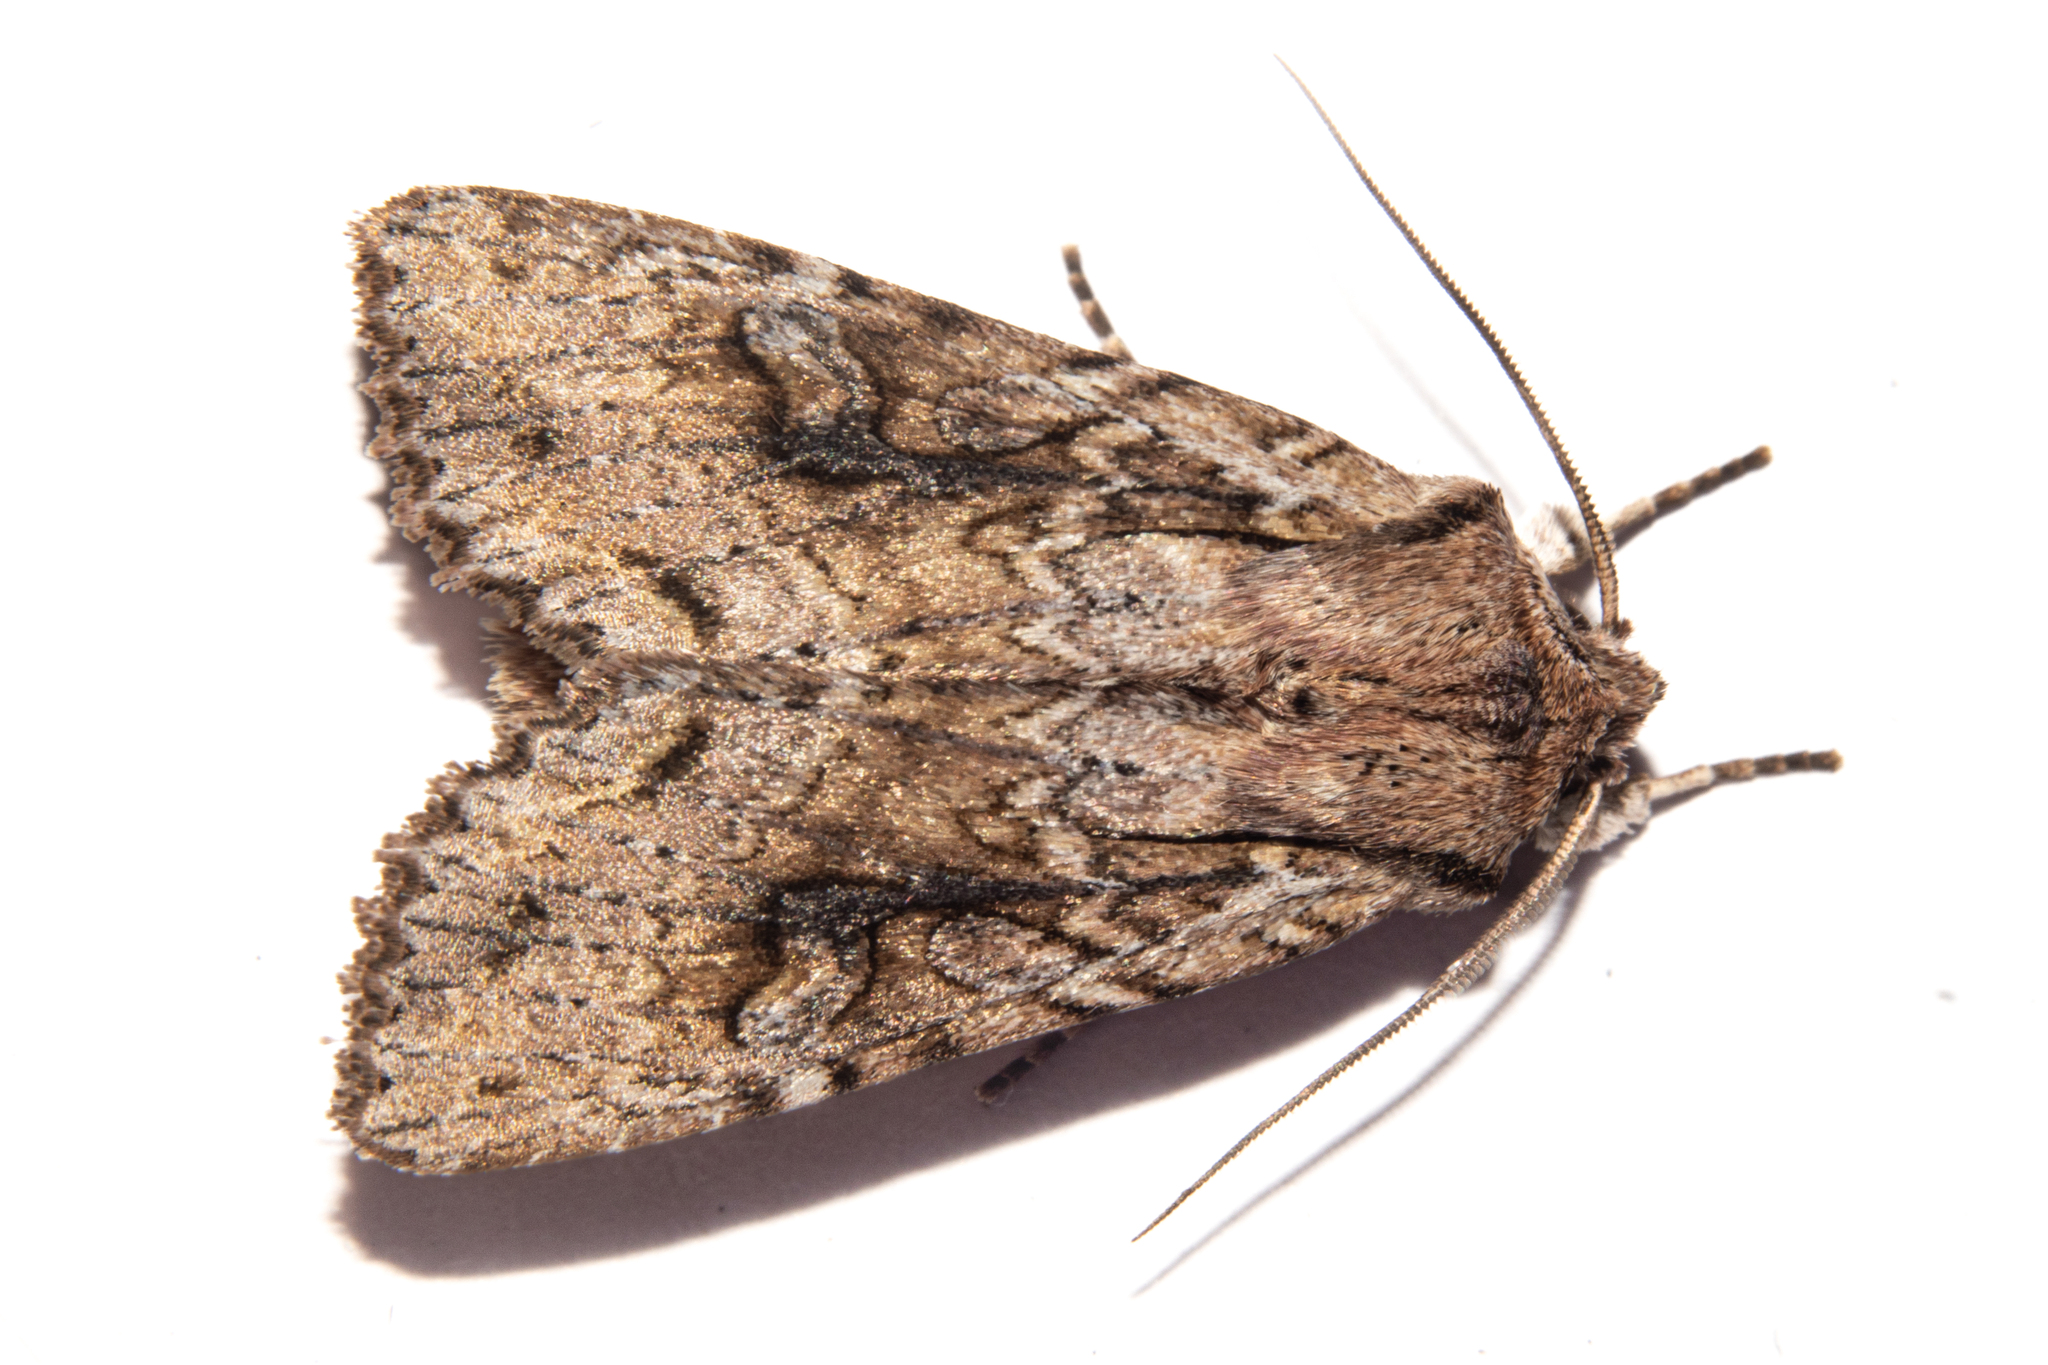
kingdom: Animalia
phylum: Arthropoda
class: Insecta
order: Lepidoptera
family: Noctuidae
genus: Ichneutica
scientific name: Ichneutica lindsayorum
